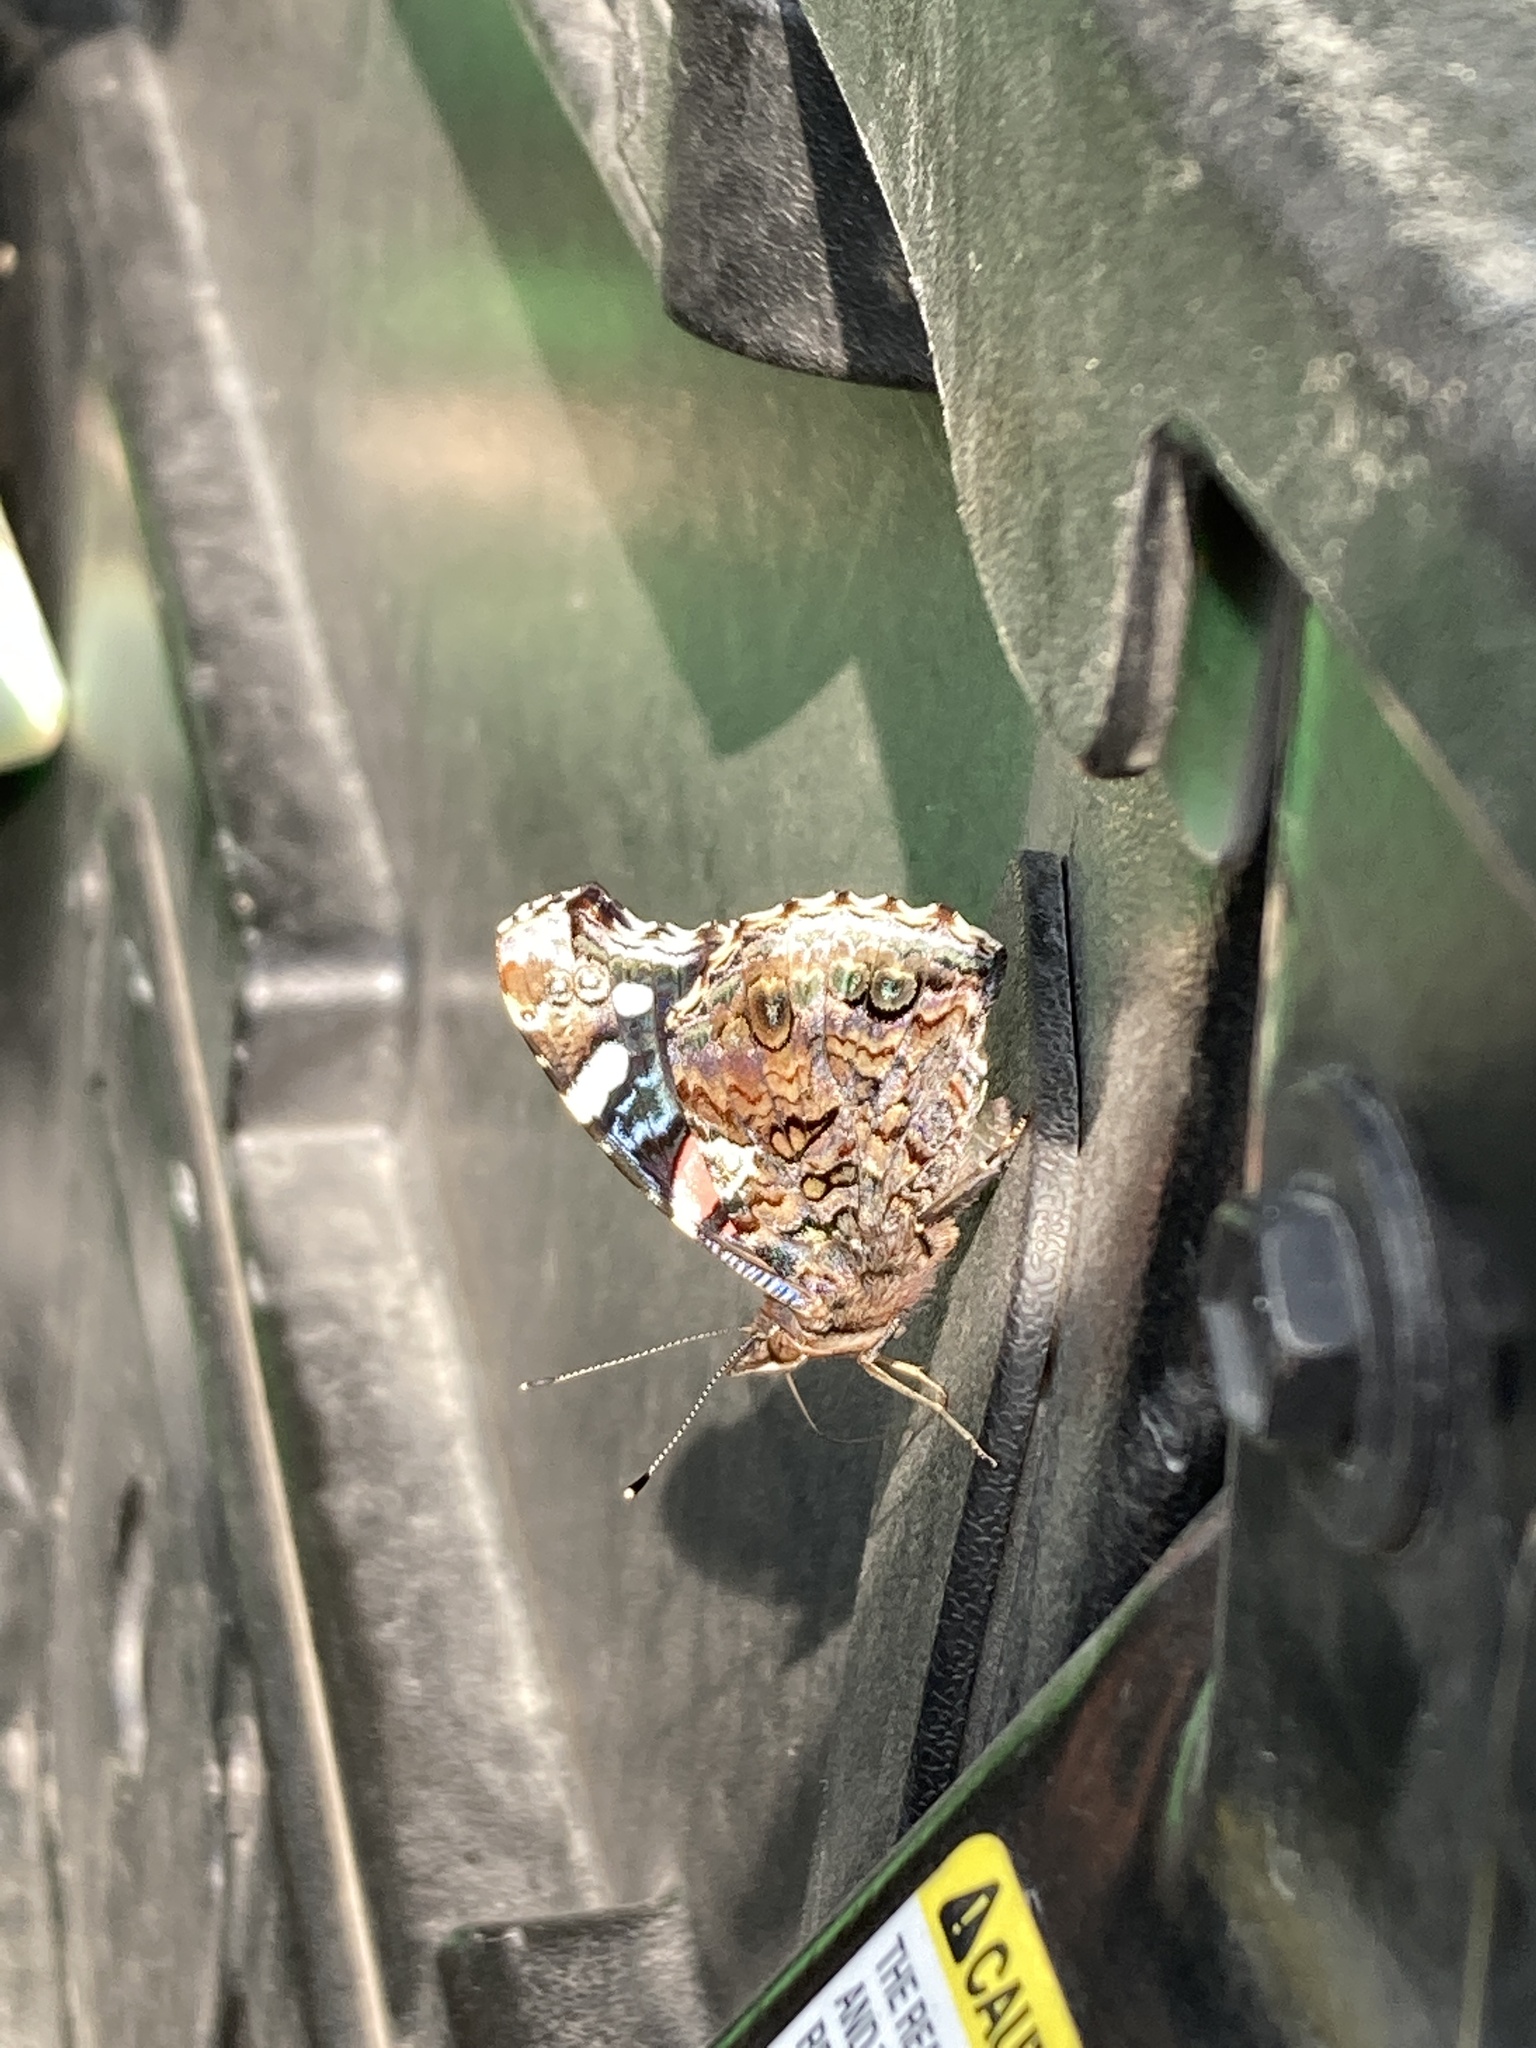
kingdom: Animalia
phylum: Arthropoda
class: Insecta
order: Lepidoptera
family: Nymphalidae
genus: Vanessa
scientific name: Vanessa atalanta
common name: Red admiral
